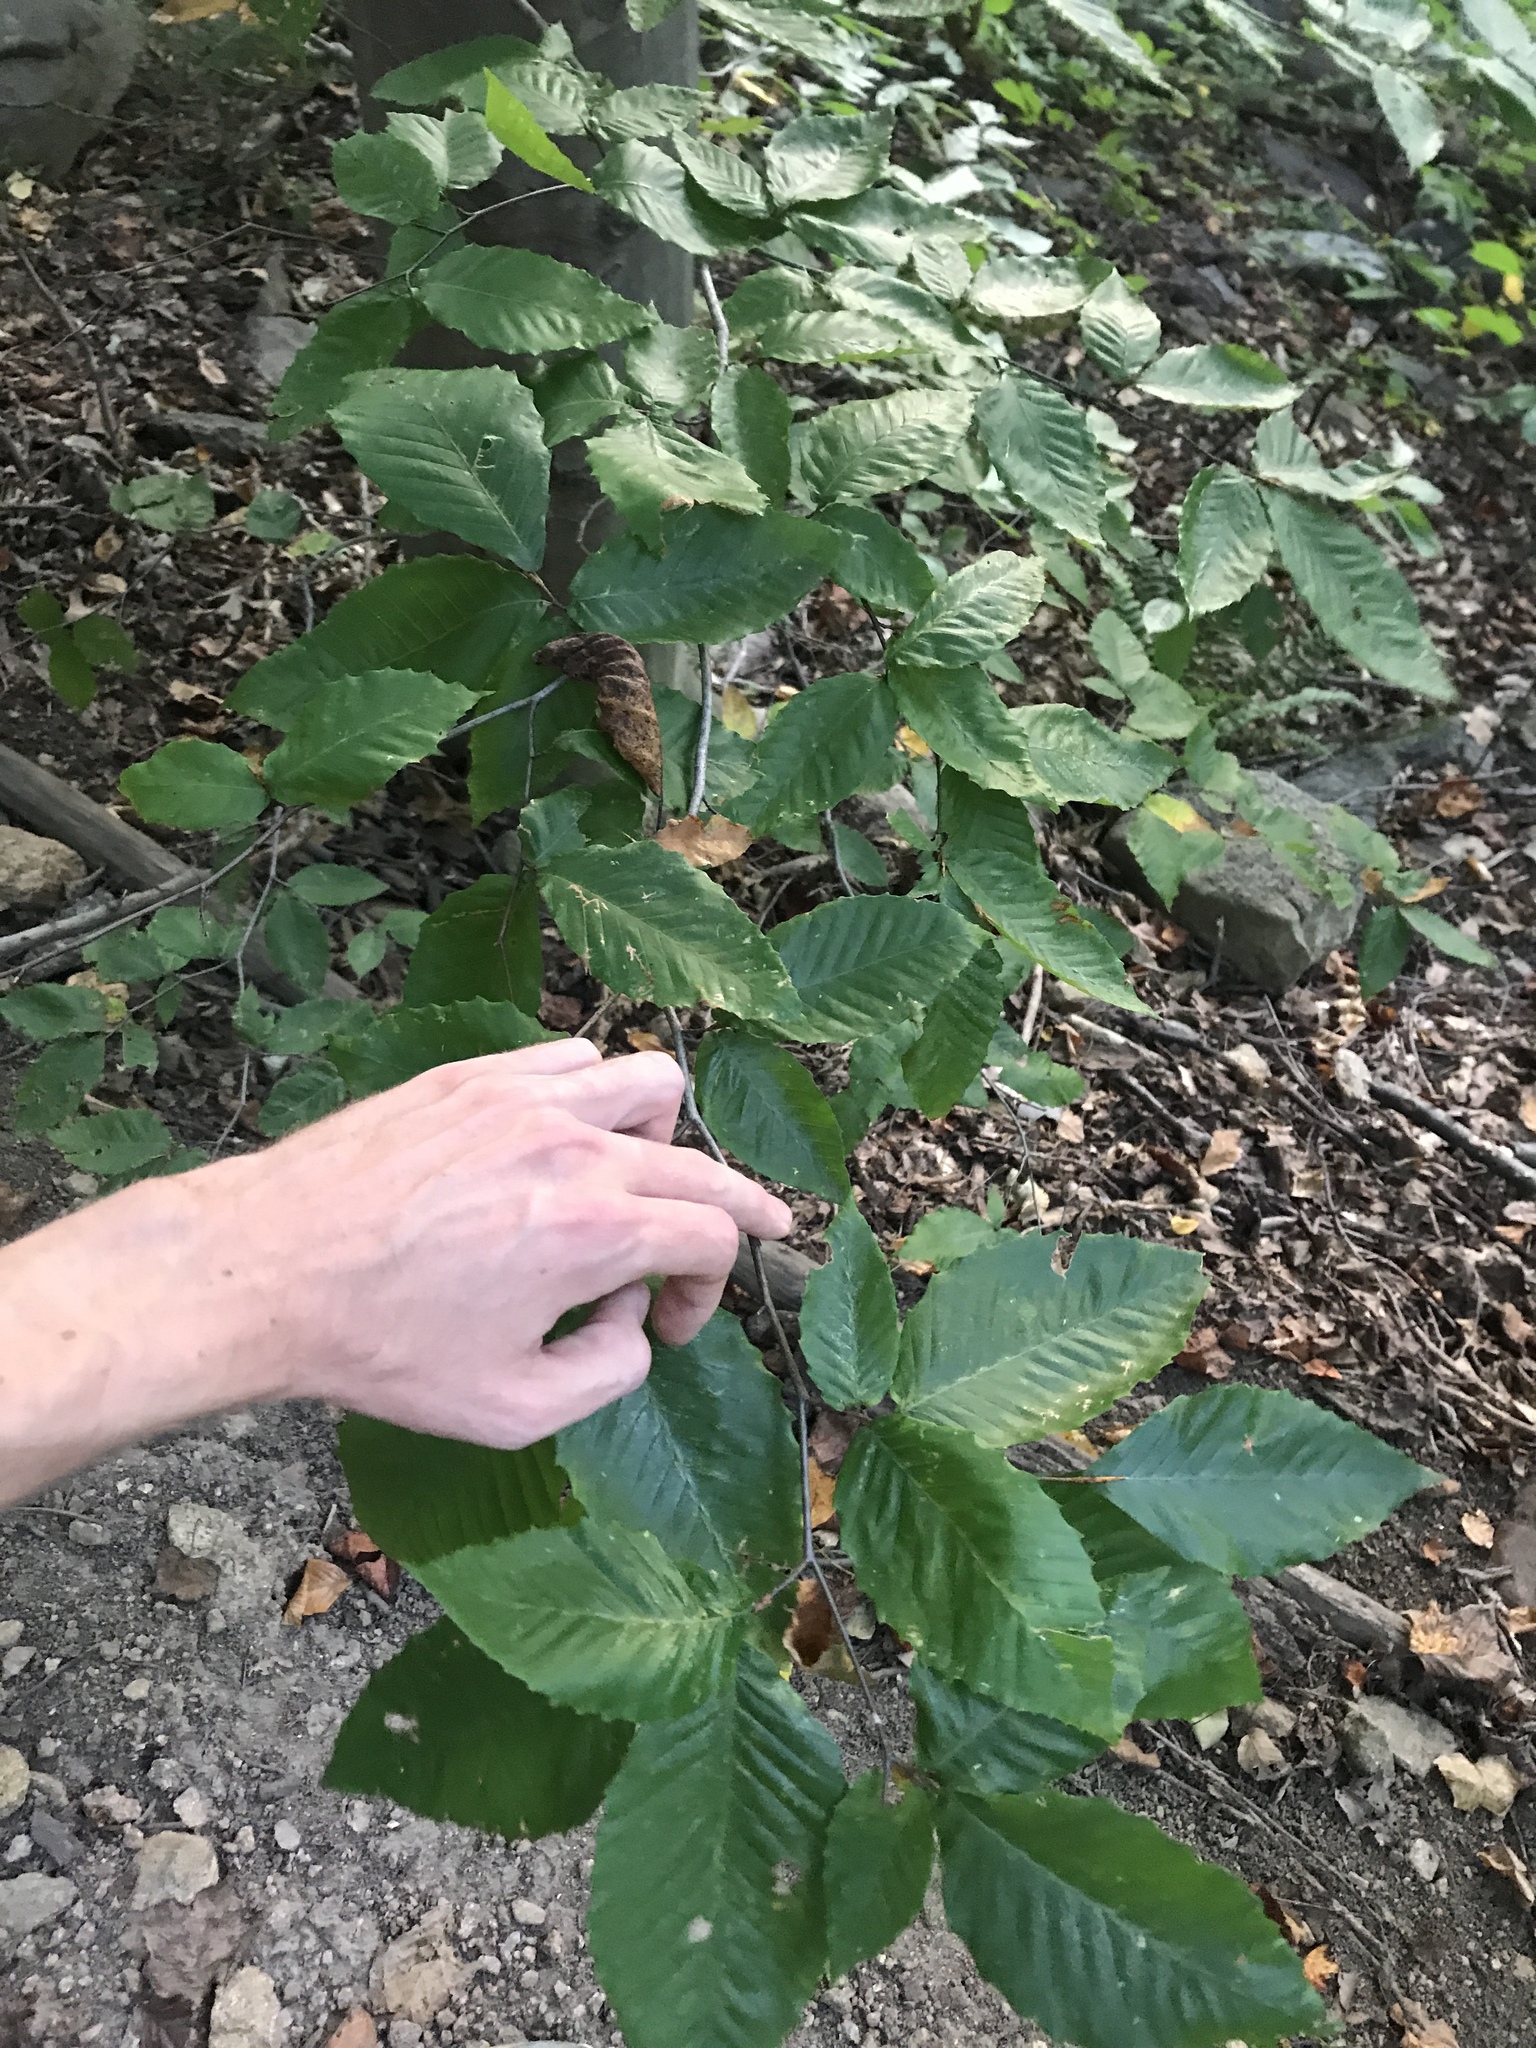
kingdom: Plantae
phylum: Tracheophyta
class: Magnoliopsida
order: Fagales
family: Fagaceae
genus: Fagus
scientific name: Fagus grandifolia
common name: American beech
